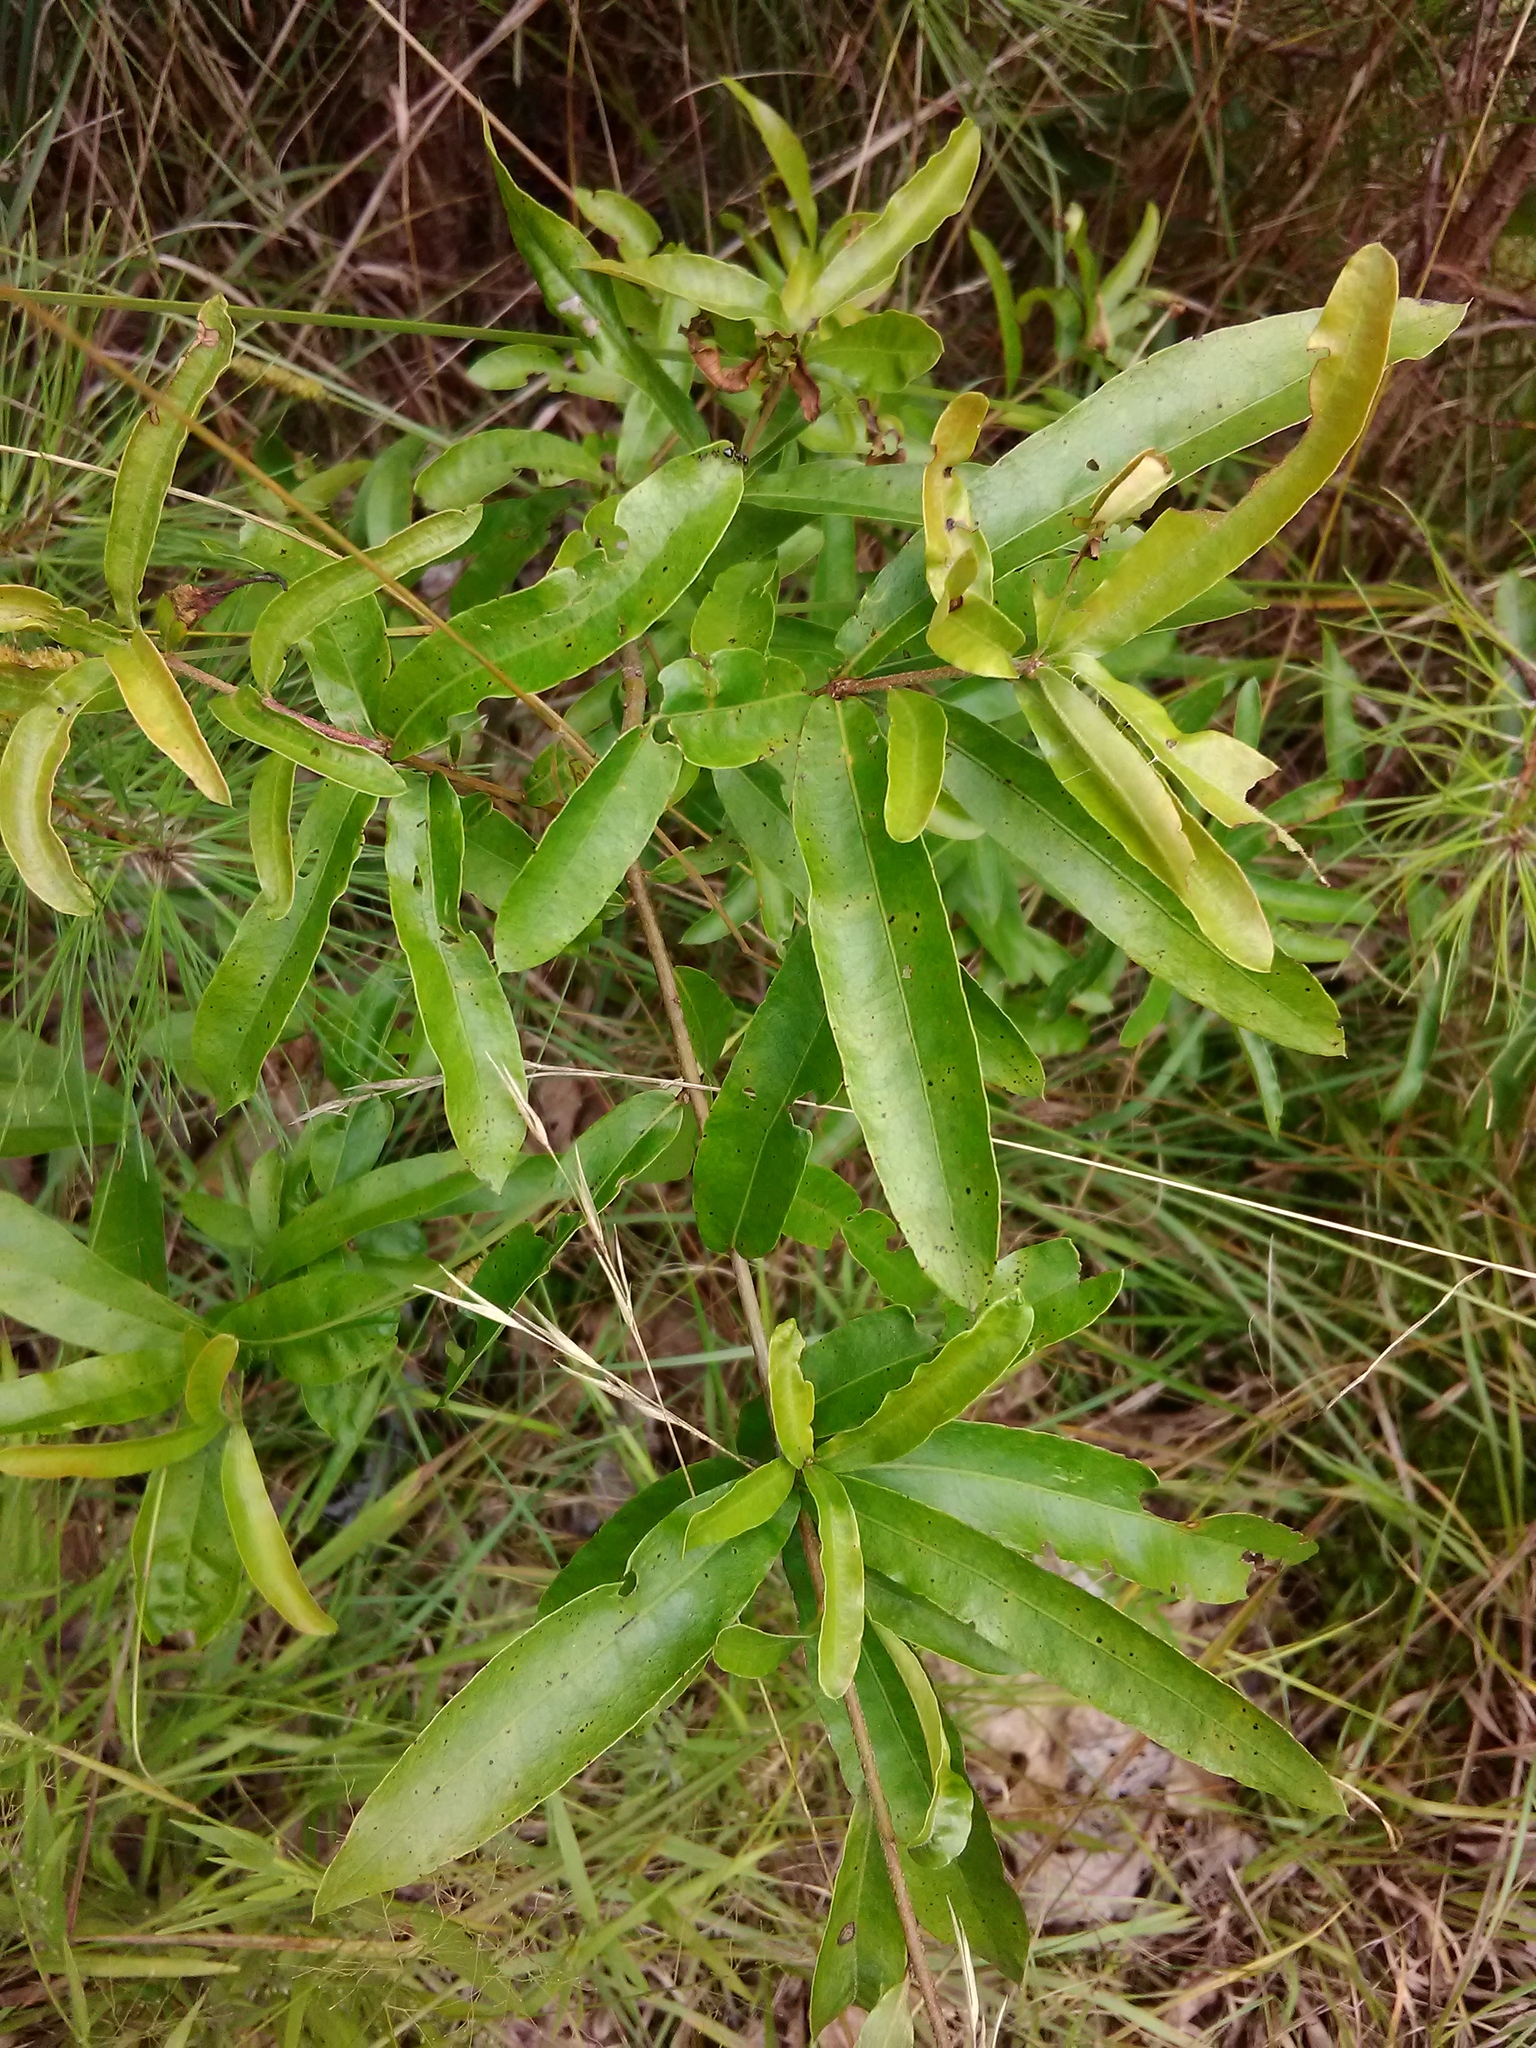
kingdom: Plantae
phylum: Tracheophyta
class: Magnoliopsida
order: Fagales
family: Fagaceae
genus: Quercus
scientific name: Quercus phellos
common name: Willow oak
